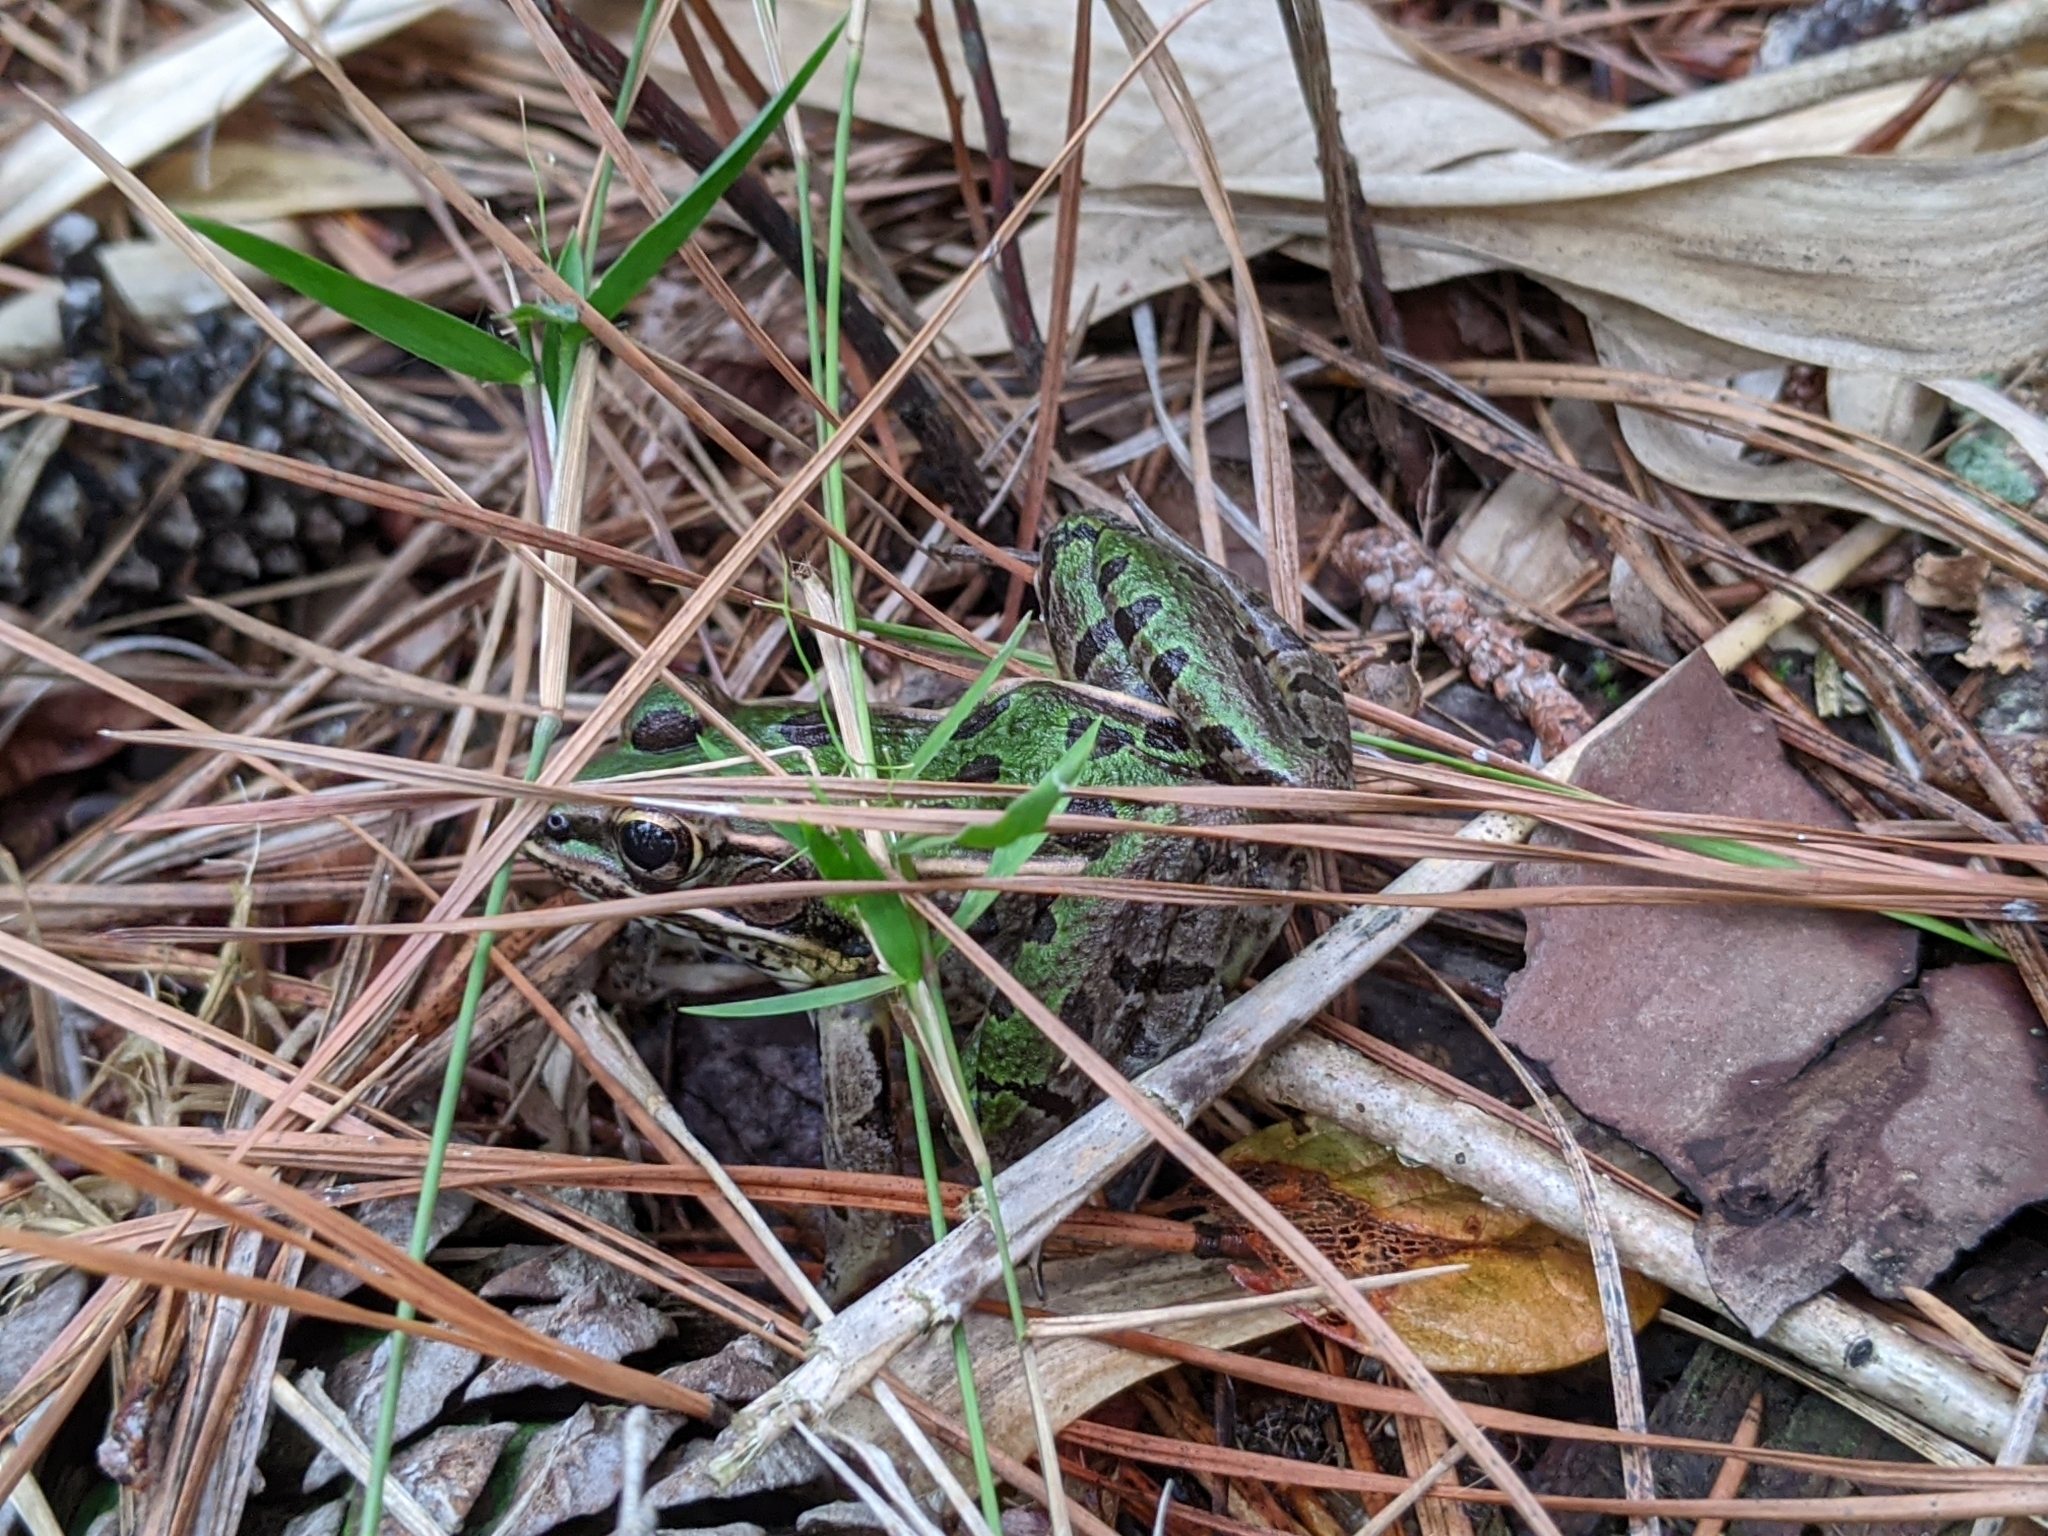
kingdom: Animalia
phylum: Chordata
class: Amphibia
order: Anura
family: Ranidae
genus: Lithobates
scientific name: Lithobates sphenocephalus
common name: Southern leopard frog
